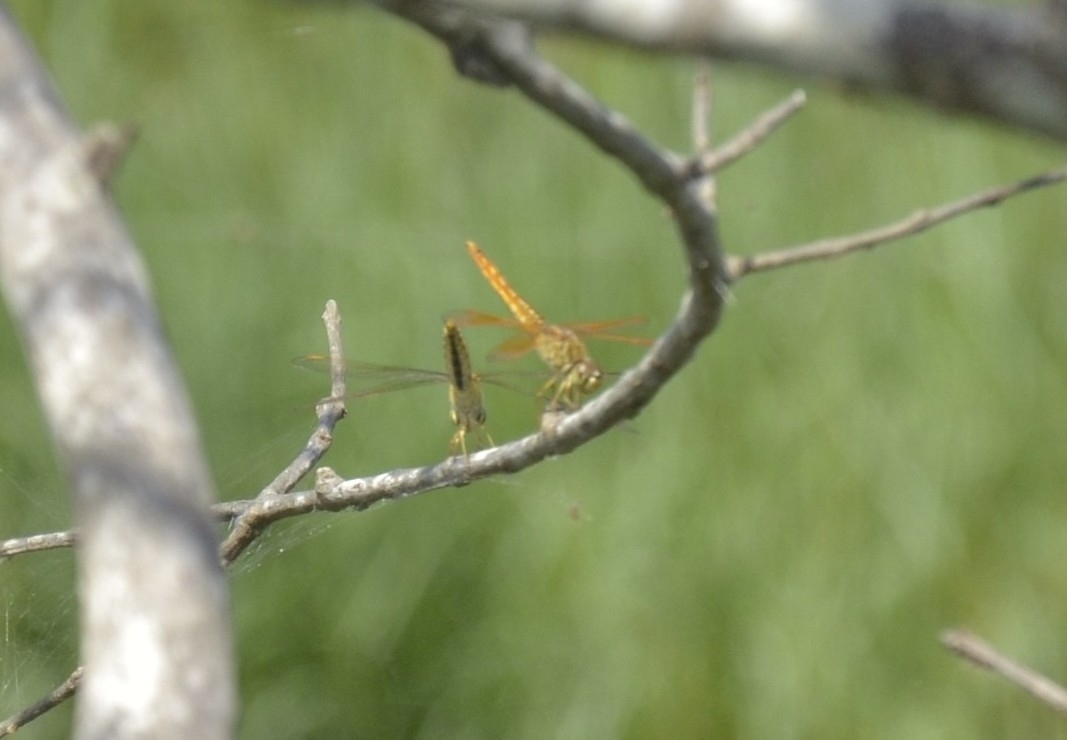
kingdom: Animalia
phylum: Arthropoda
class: Insecta
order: Odonata
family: Libellulidae
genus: Brachythemis
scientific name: Brachythemis contaminata
